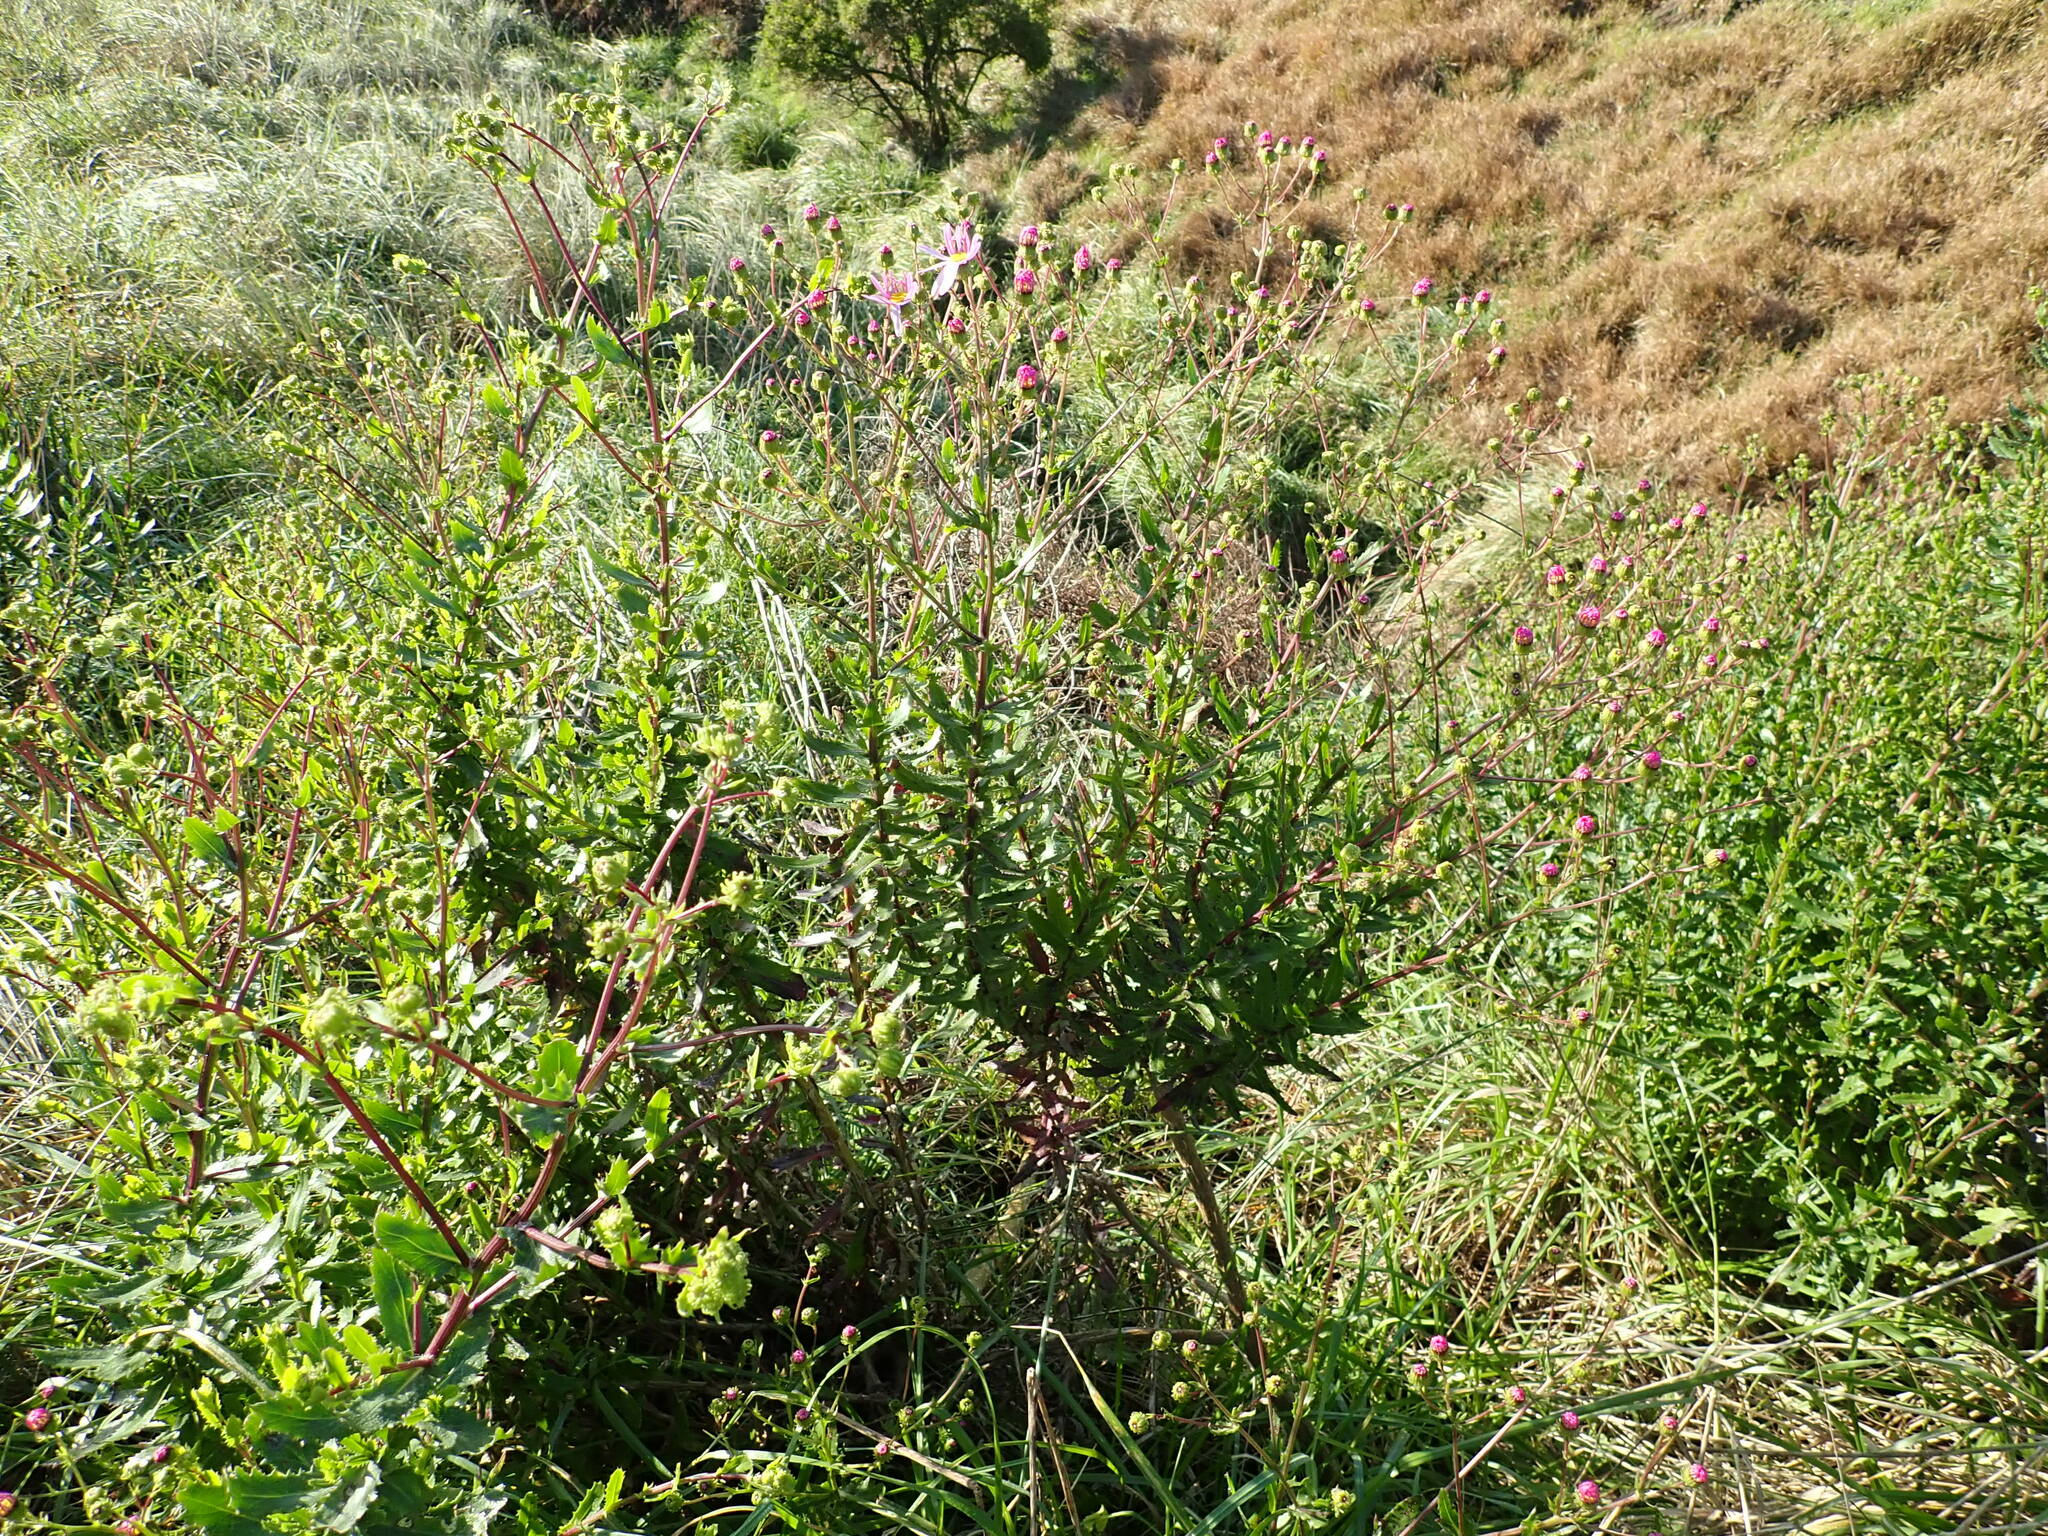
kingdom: Plantae
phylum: Tracheophyta
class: Magnoliopsida
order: Asterales
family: Asteraceae
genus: Senecio
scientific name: Senecio glastifolius
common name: Woad-leaved ragwort
